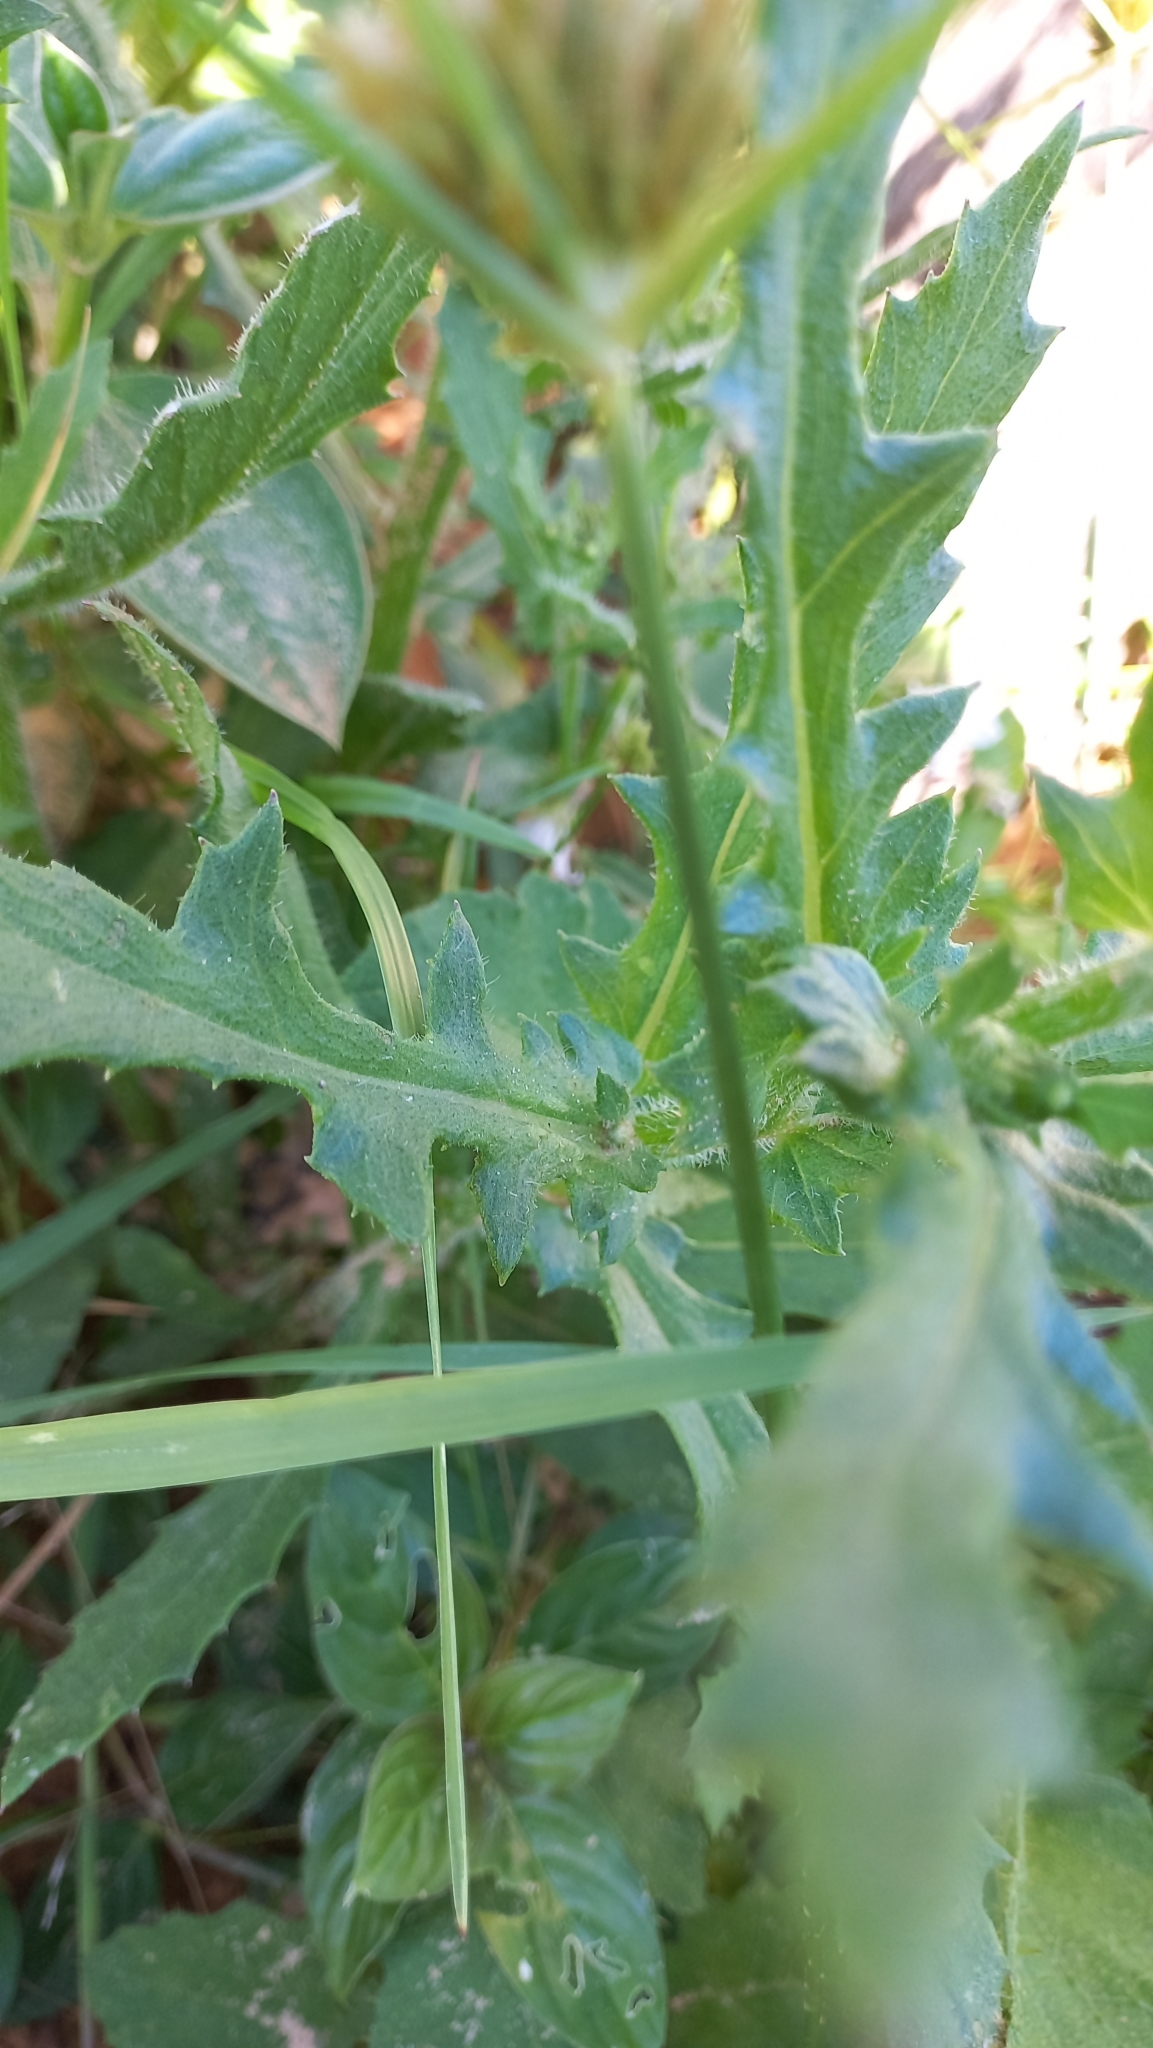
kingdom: Plantae
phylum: Tracheophyta
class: Magnoliopsida
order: Asterales
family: Asteraceae
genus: Erechtites
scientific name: Erechtites hieraciifolius
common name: American burnweed
